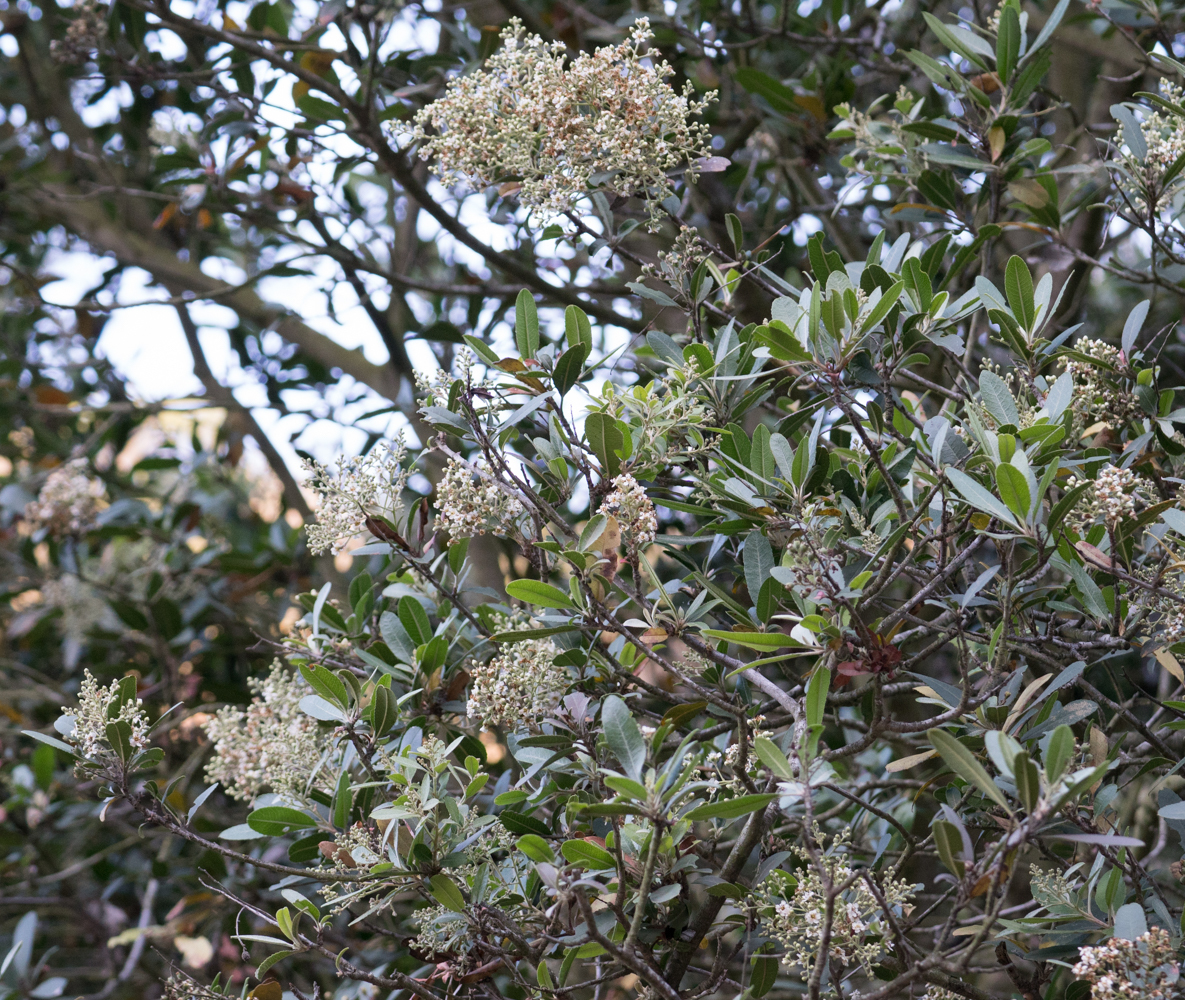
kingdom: Plantae
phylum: Tracheophyta
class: Magnoliopsida
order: Rosales
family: Rosaceae
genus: Heteromeles
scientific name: Heteromeles arbutifolia
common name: California-holly
